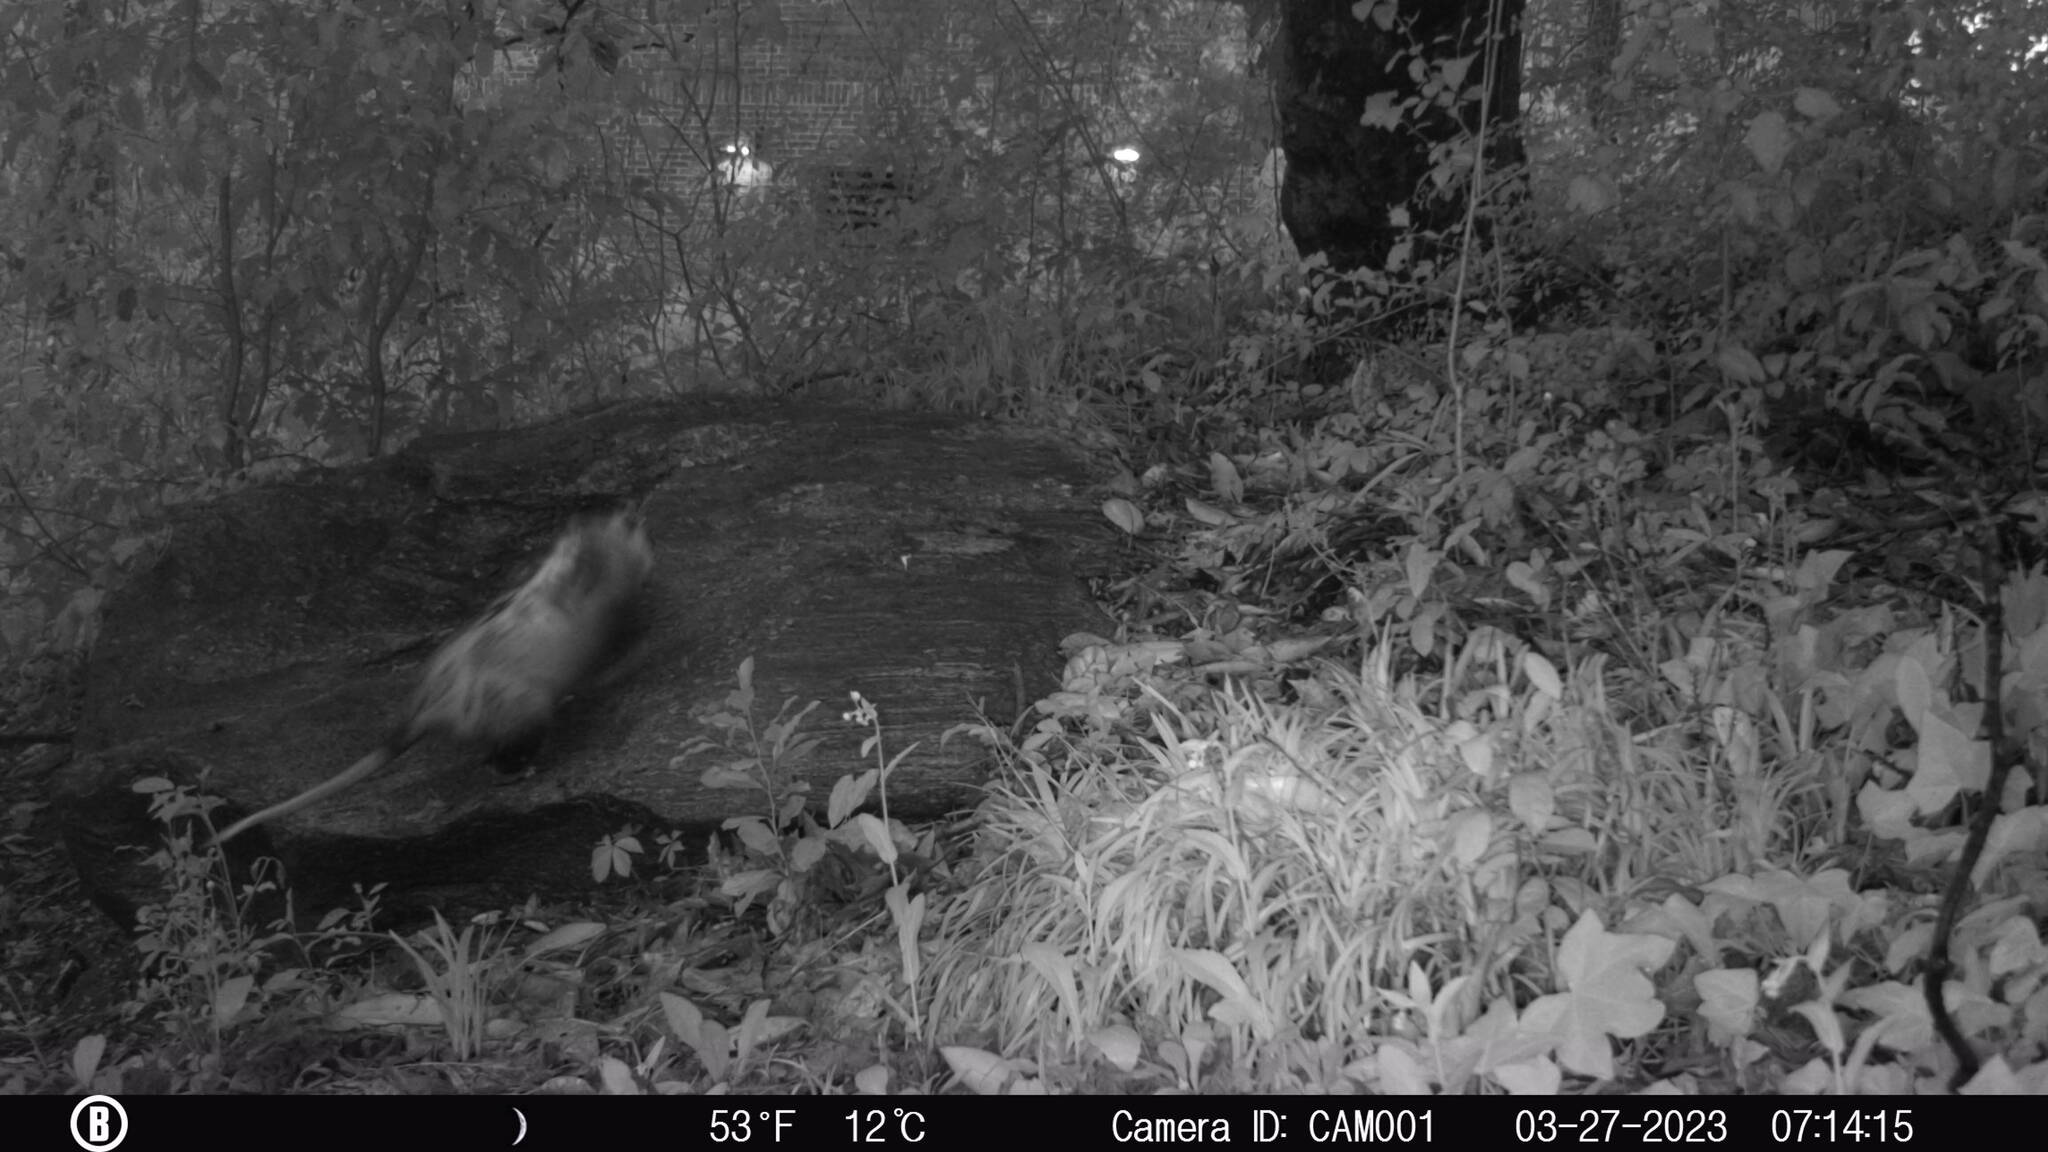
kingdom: Animalia
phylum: Chordata
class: Mammalia
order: Didelphimorphia
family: Didelphidae
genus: Didelphis
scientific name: Didelphis virginiana
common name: Virginia opossum
